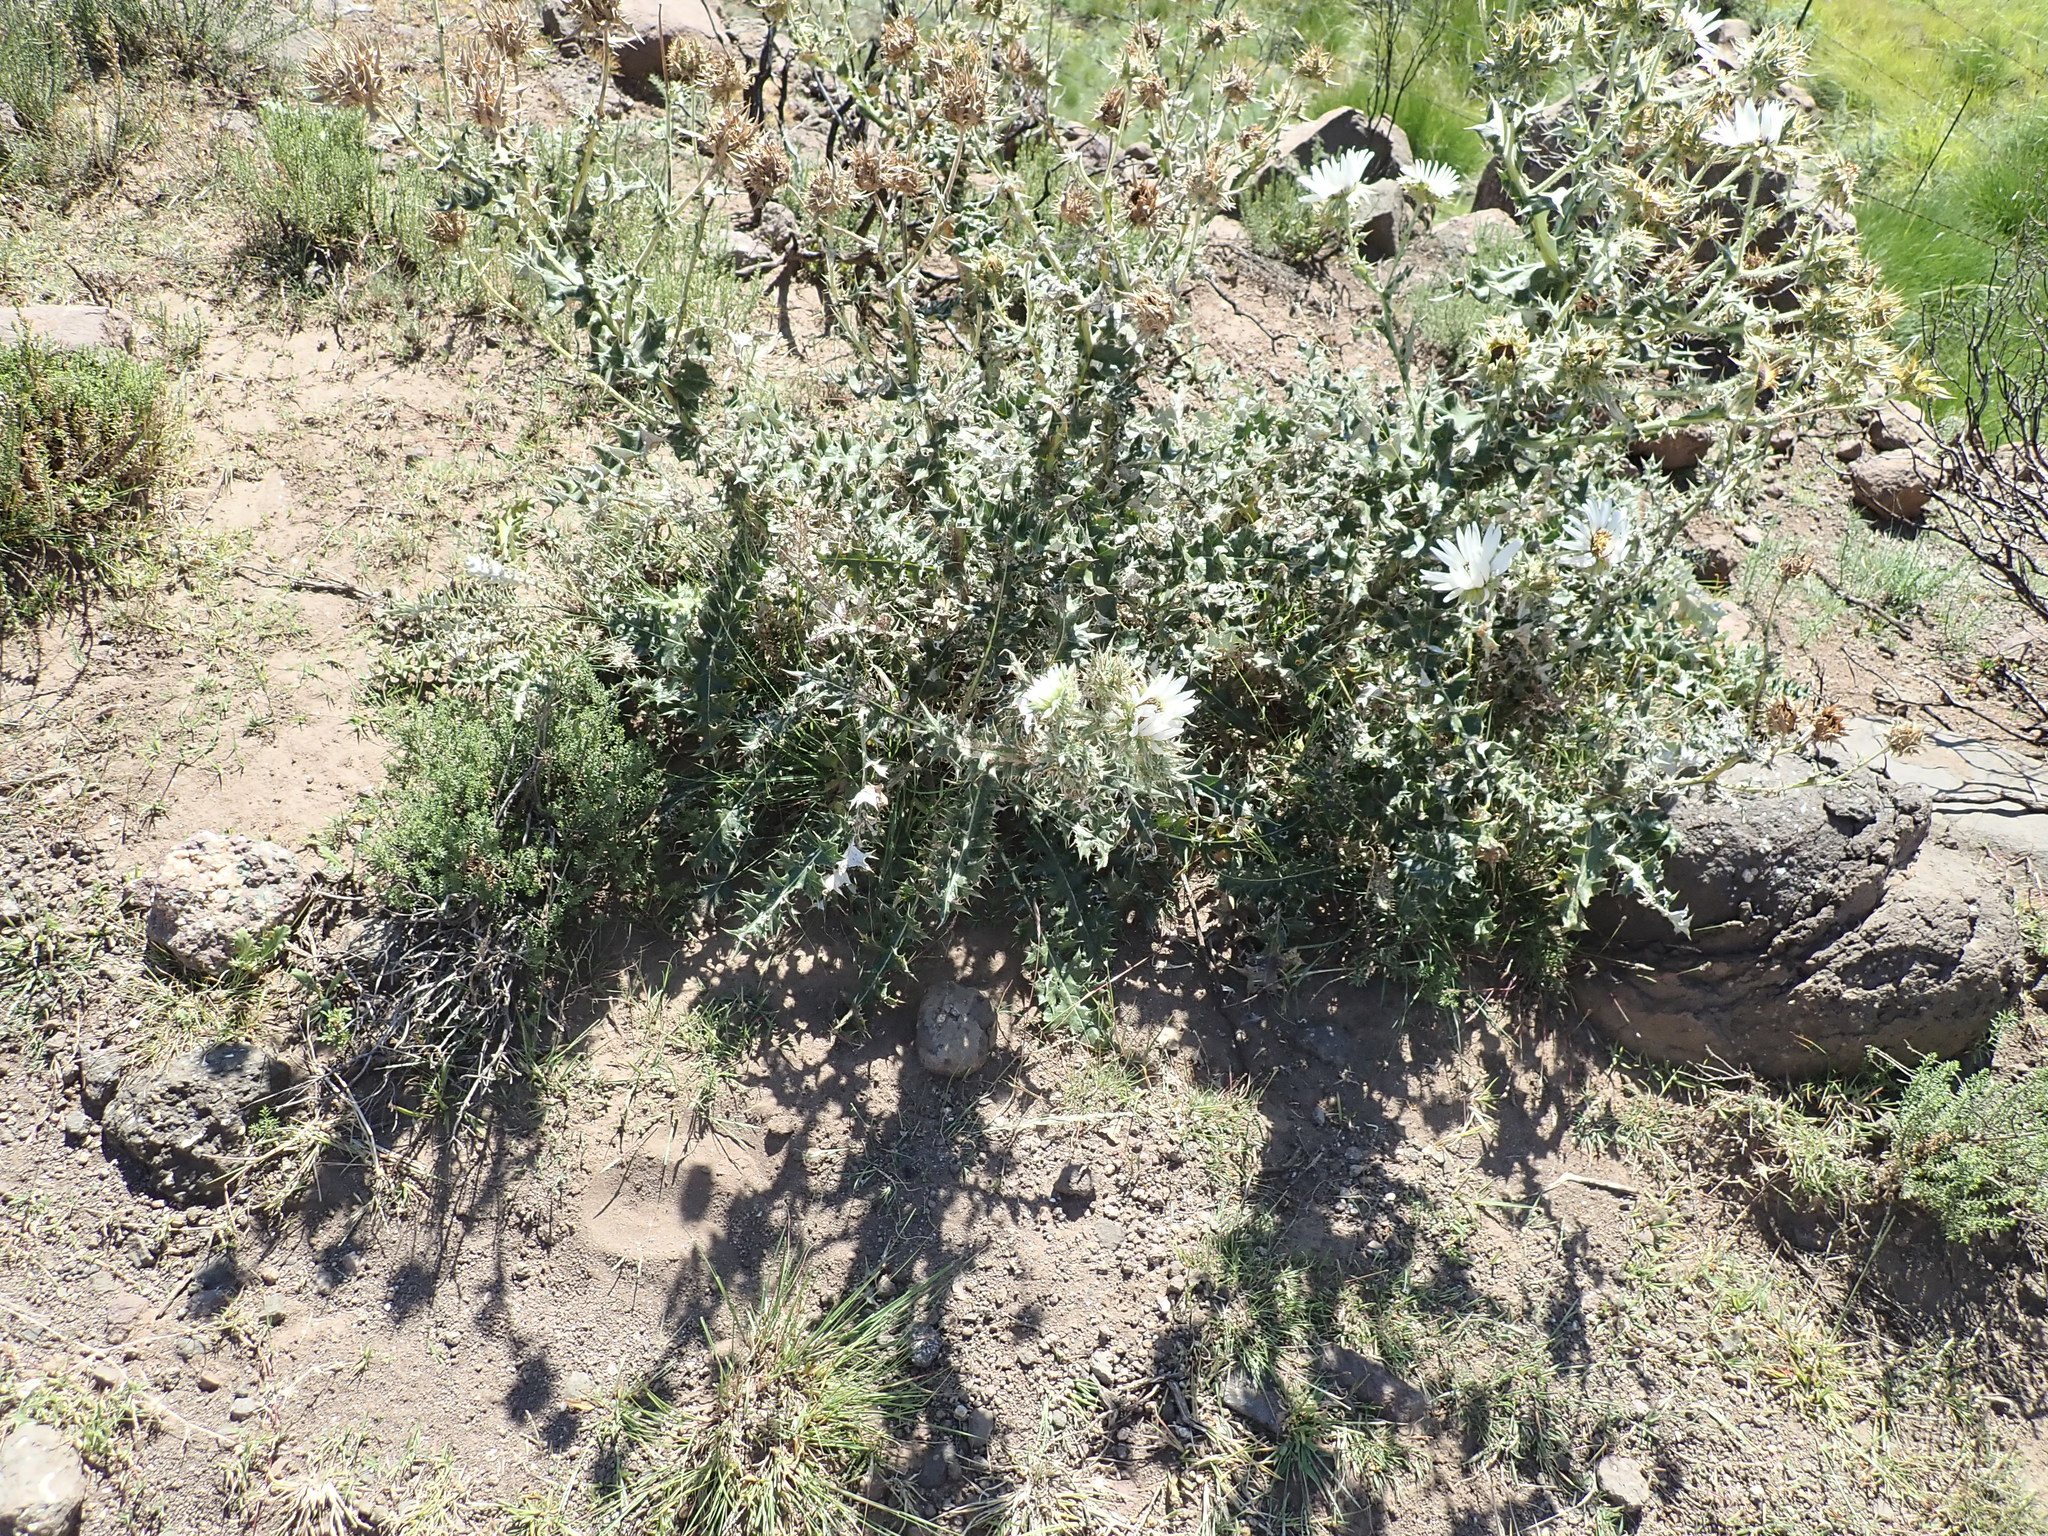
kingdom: Plantae
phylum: Tracheophyta
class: Magnoliopsida
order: Asterales
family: Asteraceae
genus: Berkheya
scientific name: Berkheya cirsiifolia
